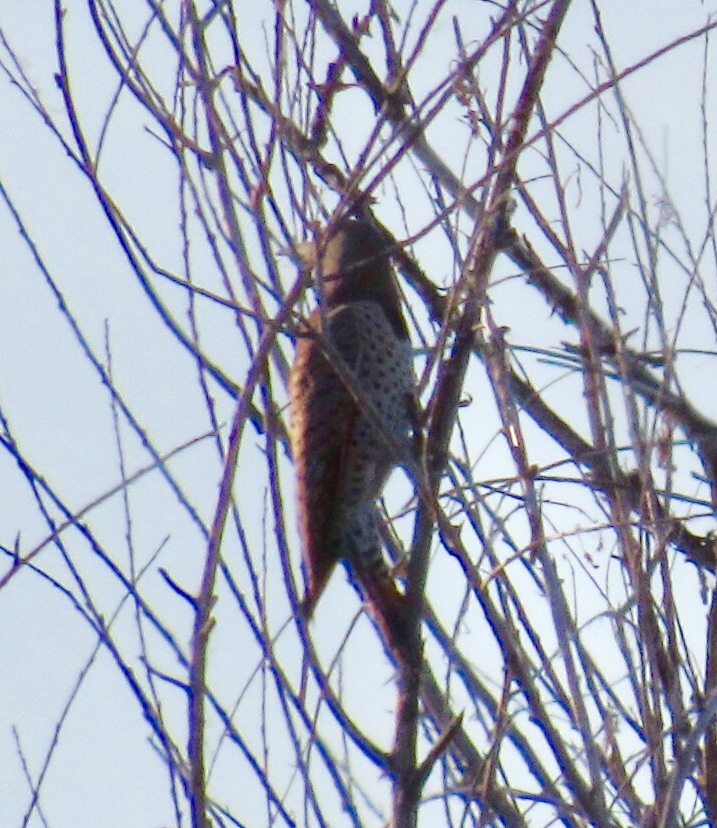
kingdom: Animalia
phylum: Chordata
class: Aves
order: Piciformes
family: Picidae
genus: Colaptes
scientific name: Colaptes auratus
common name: Northern flicker
